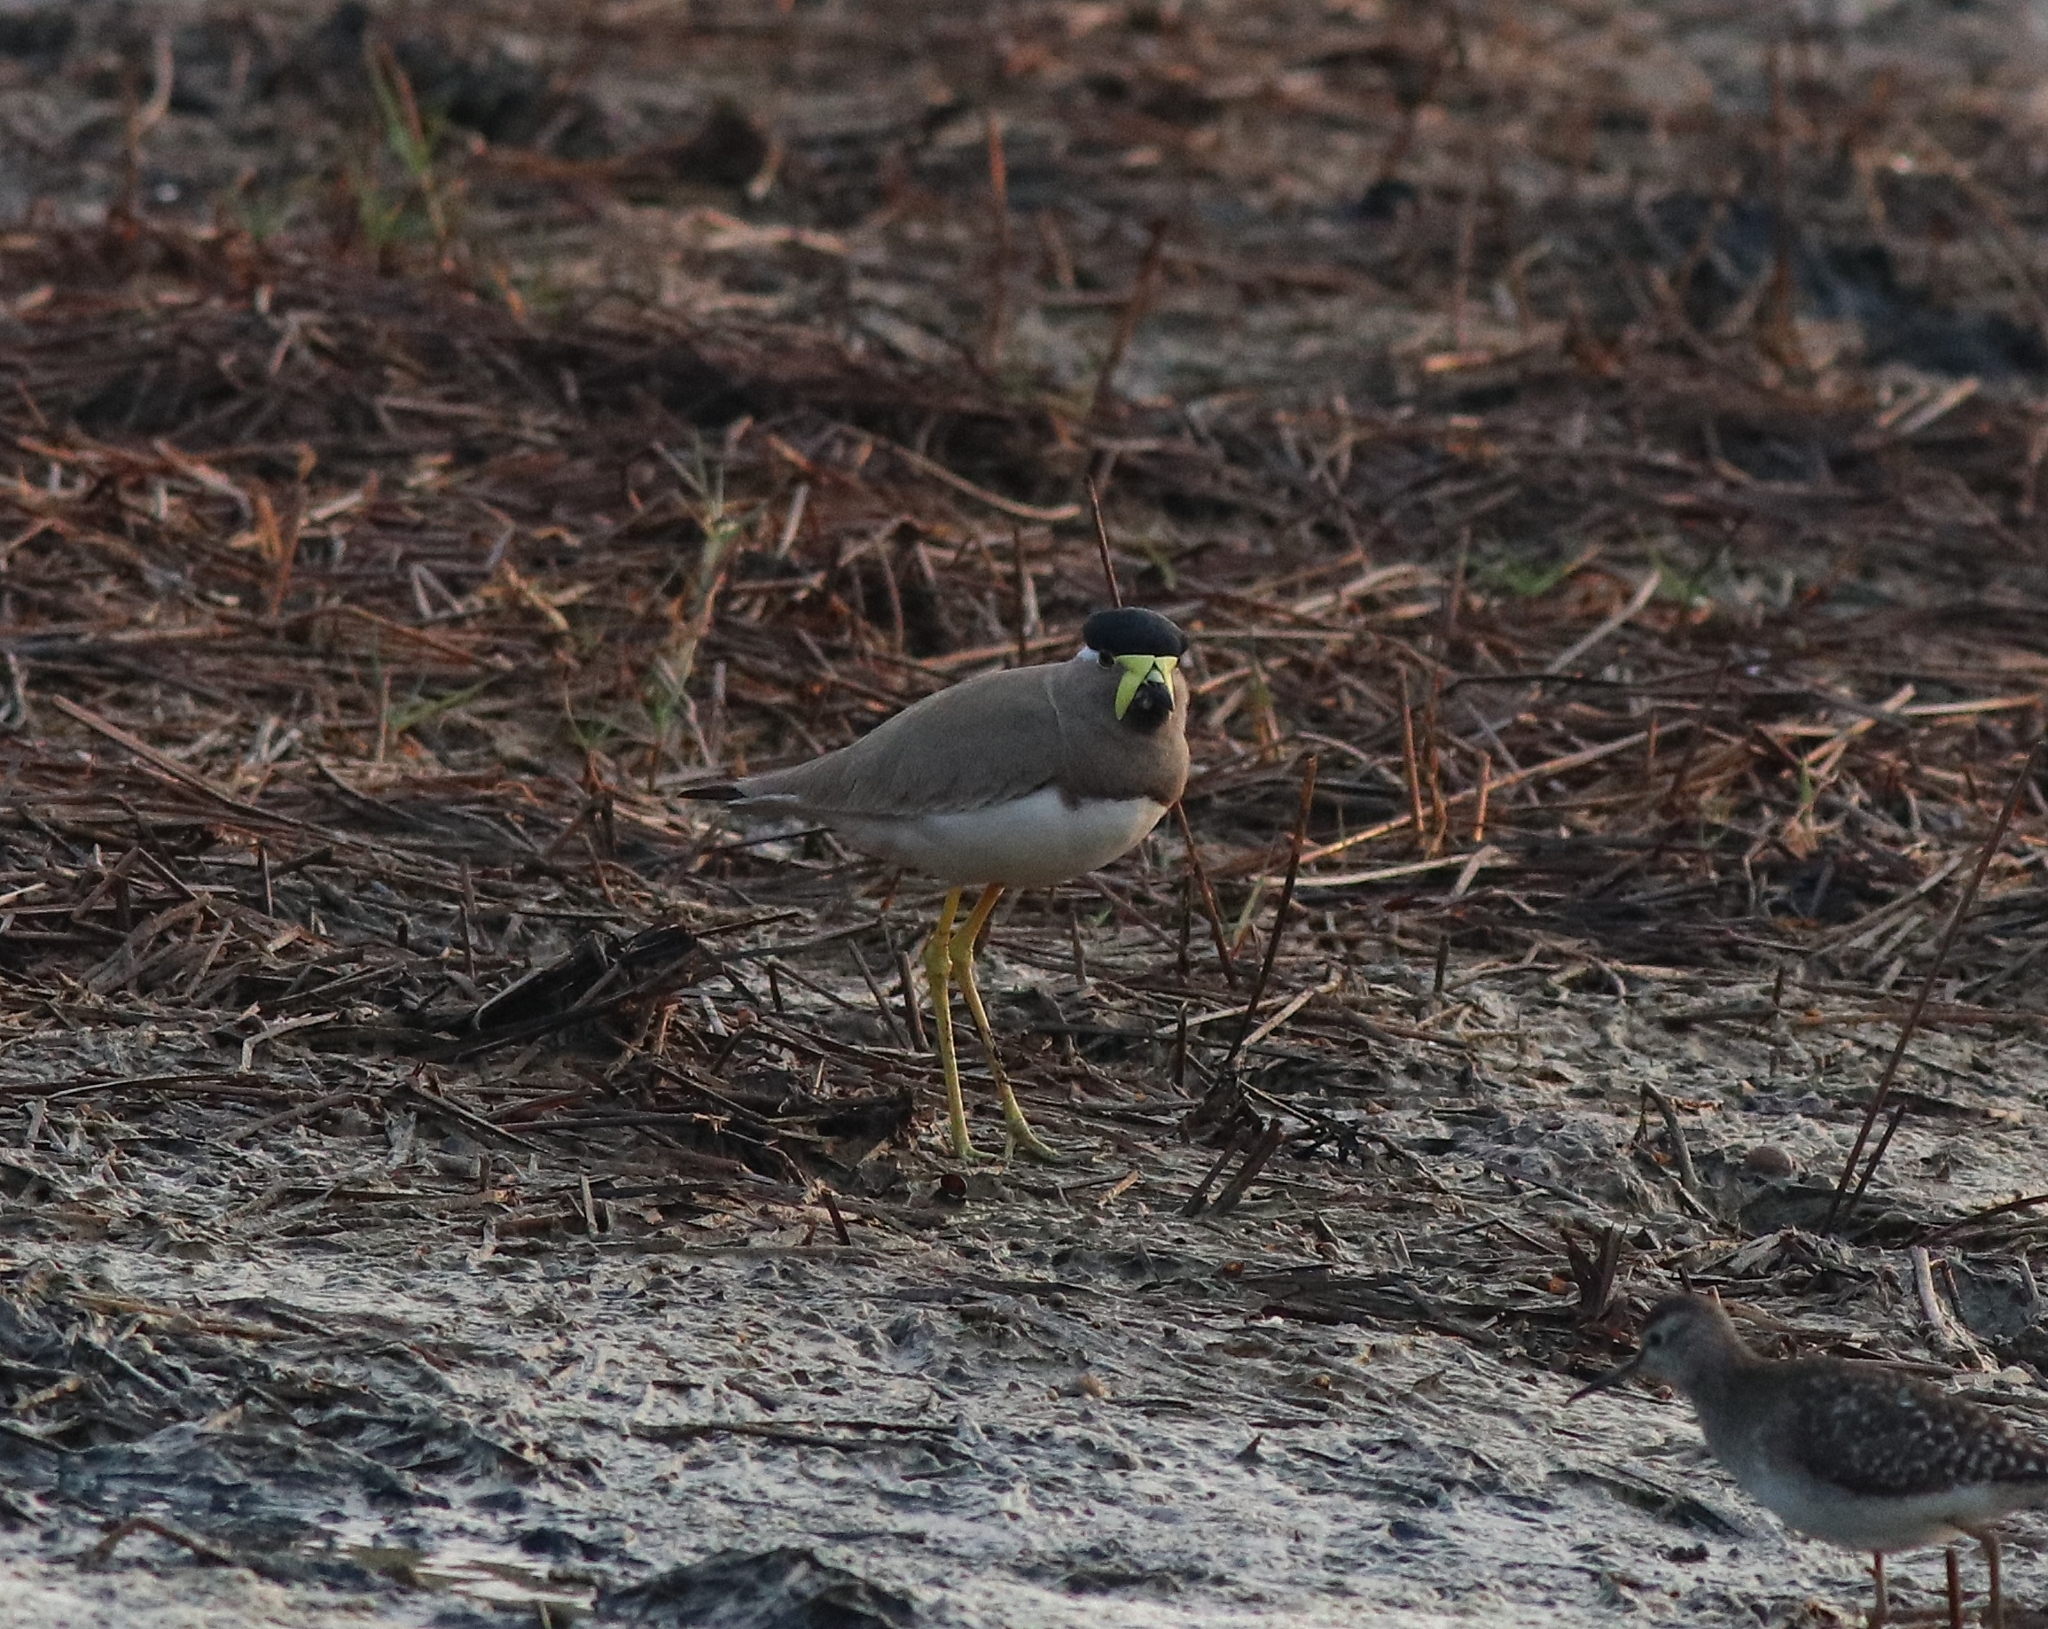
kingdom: Animalia
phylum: Chordata
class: Aves
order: Charadriiformes
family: Charadriidae
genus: Vanellus
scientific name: Vanellus malabaricus
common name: Yellow-wattled lapwing
